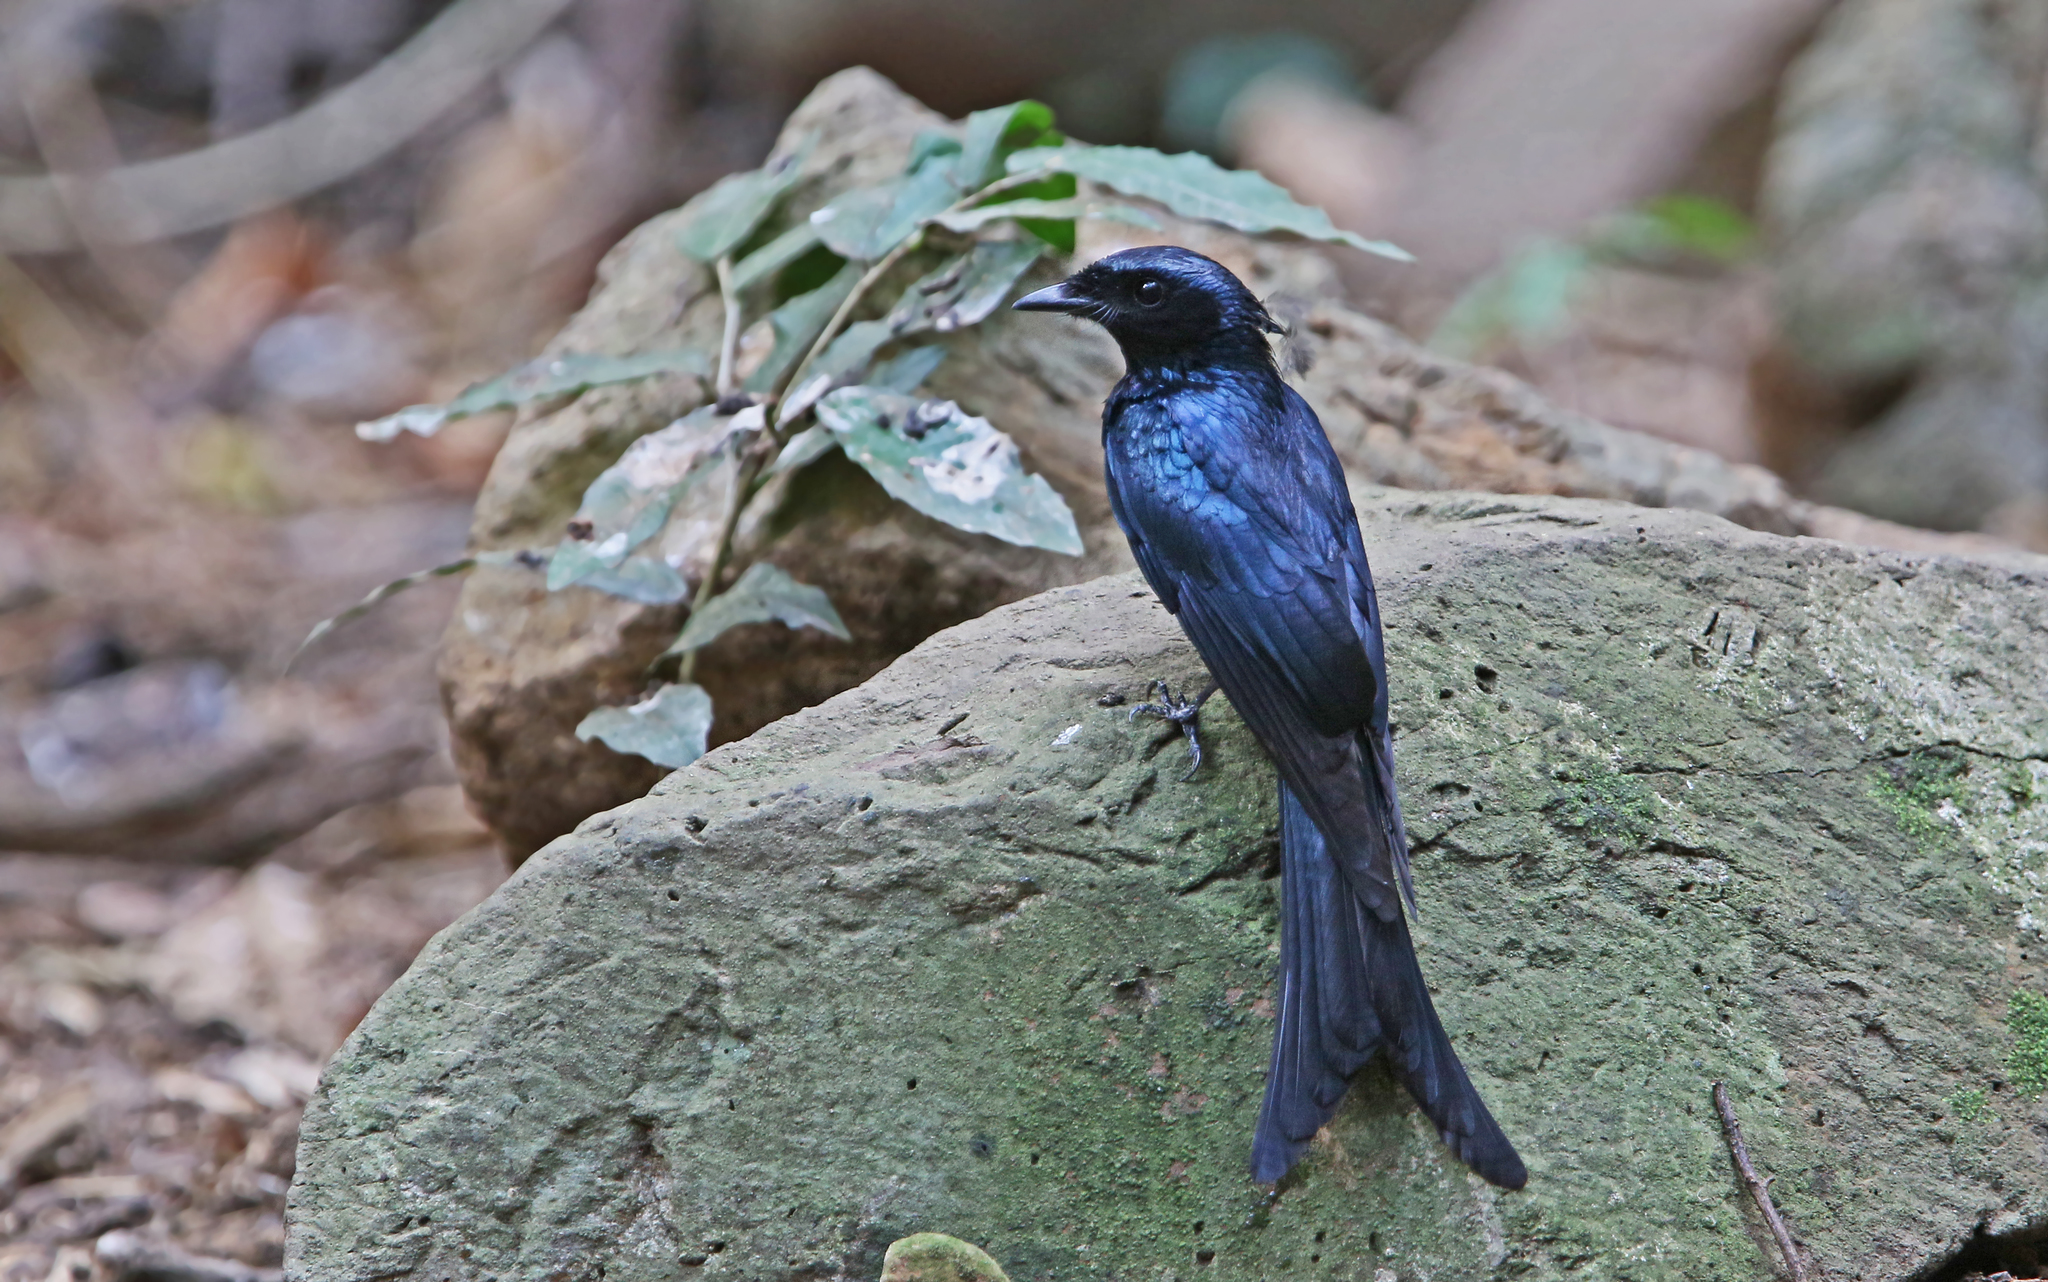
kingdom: Animalia
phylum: Chordata
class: Aves
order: Passeriformes
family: Dicruridae
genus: Dicrurus
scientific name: Dicrurus aeneus
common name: Bronzed drongo
